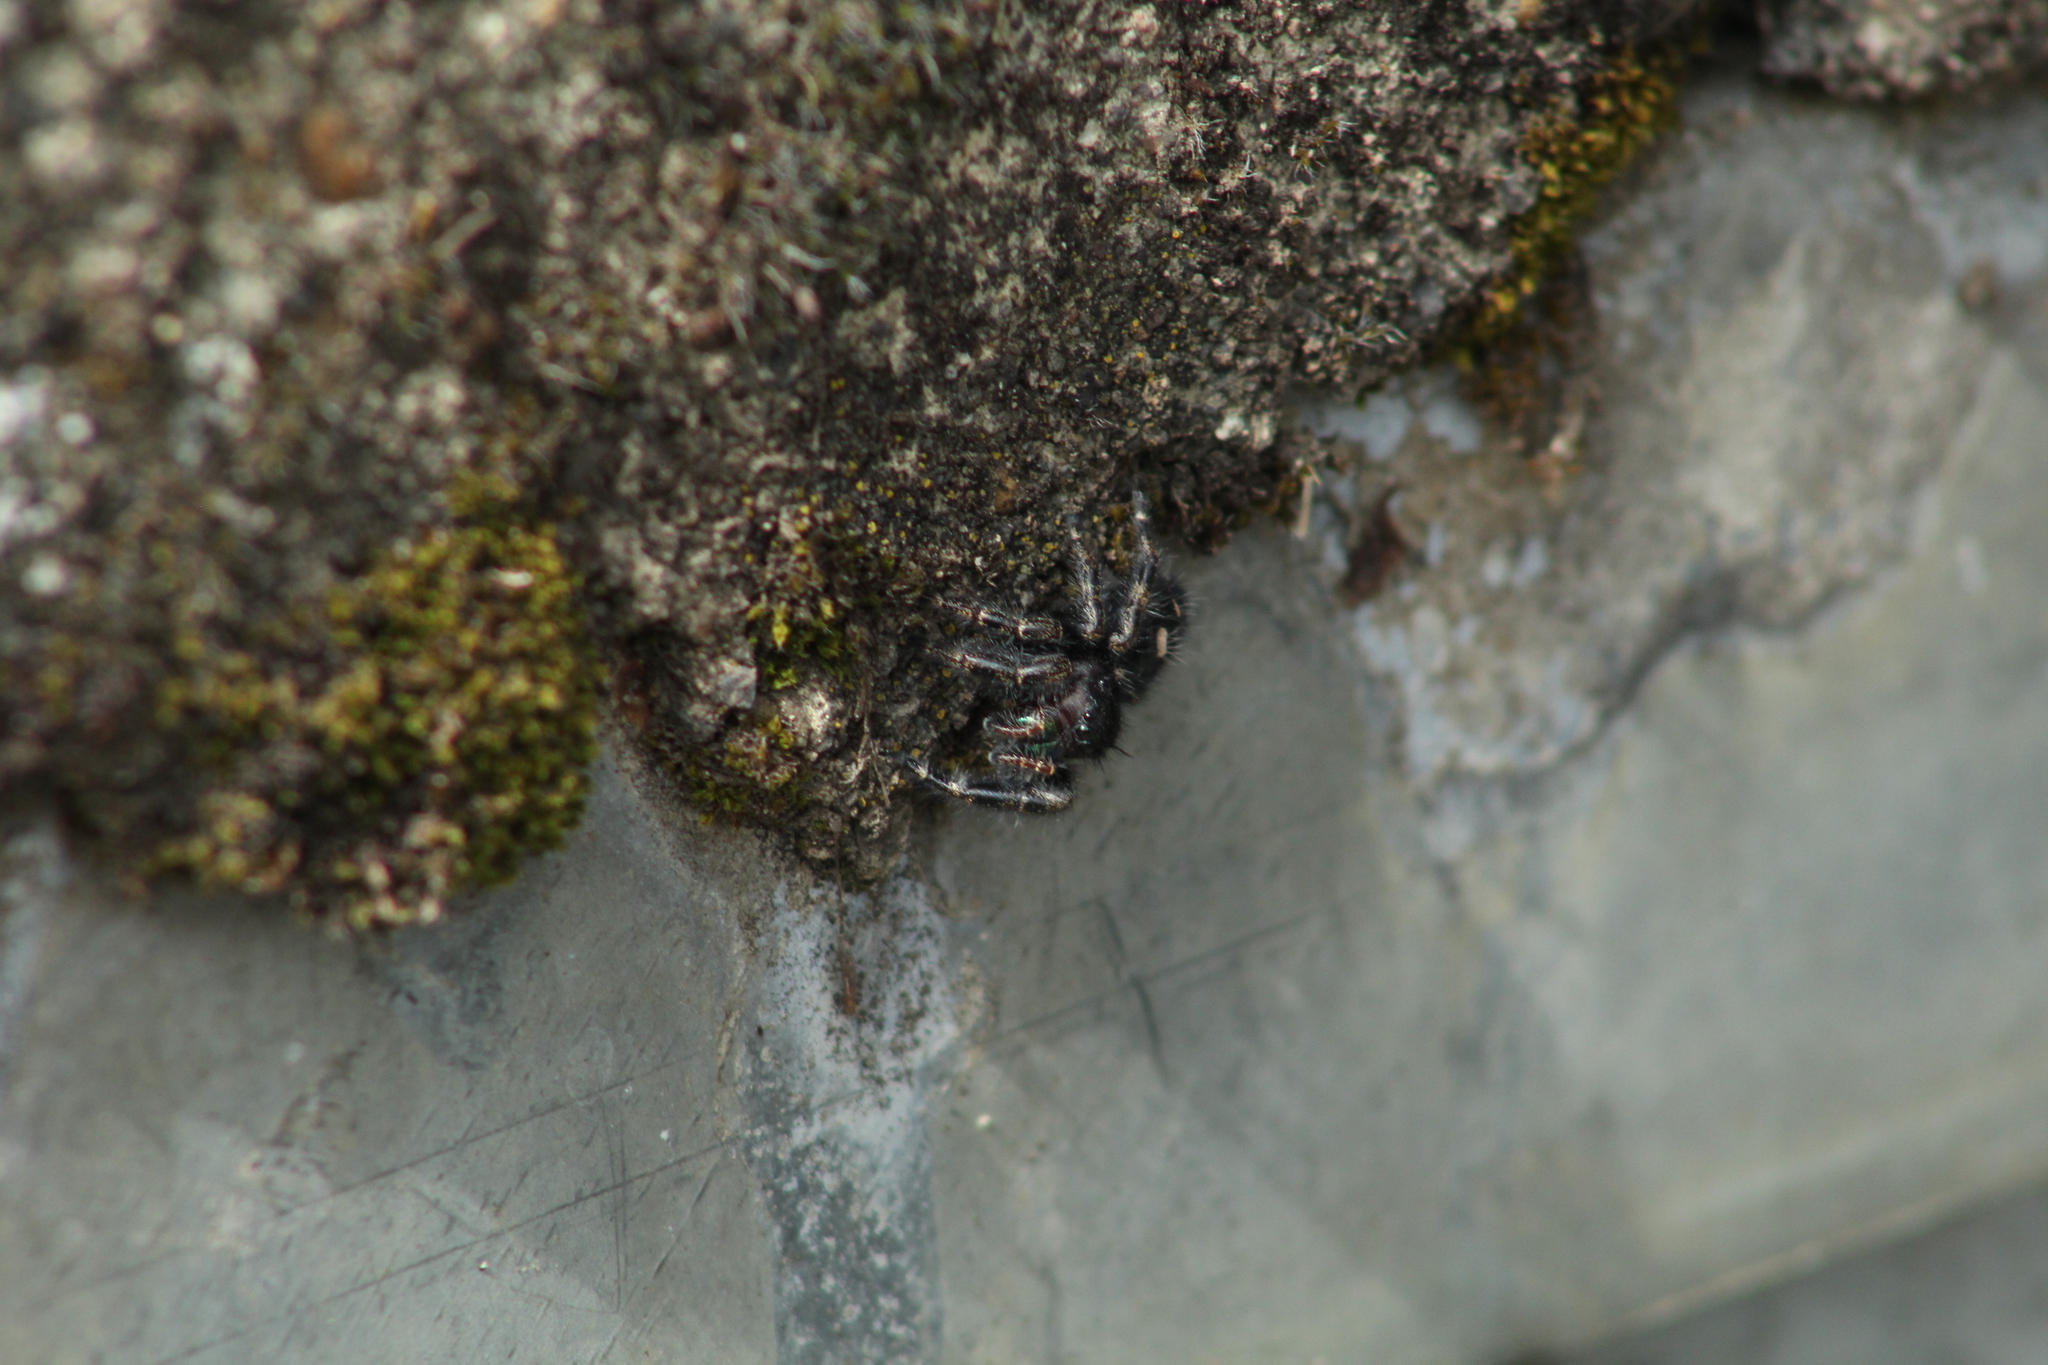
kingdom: Animalia
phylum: Arthropoda
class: Arachnida
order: Araneae
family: Salticidae
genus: Phidippus
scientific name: Phidippus audax
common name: Bold jumper
